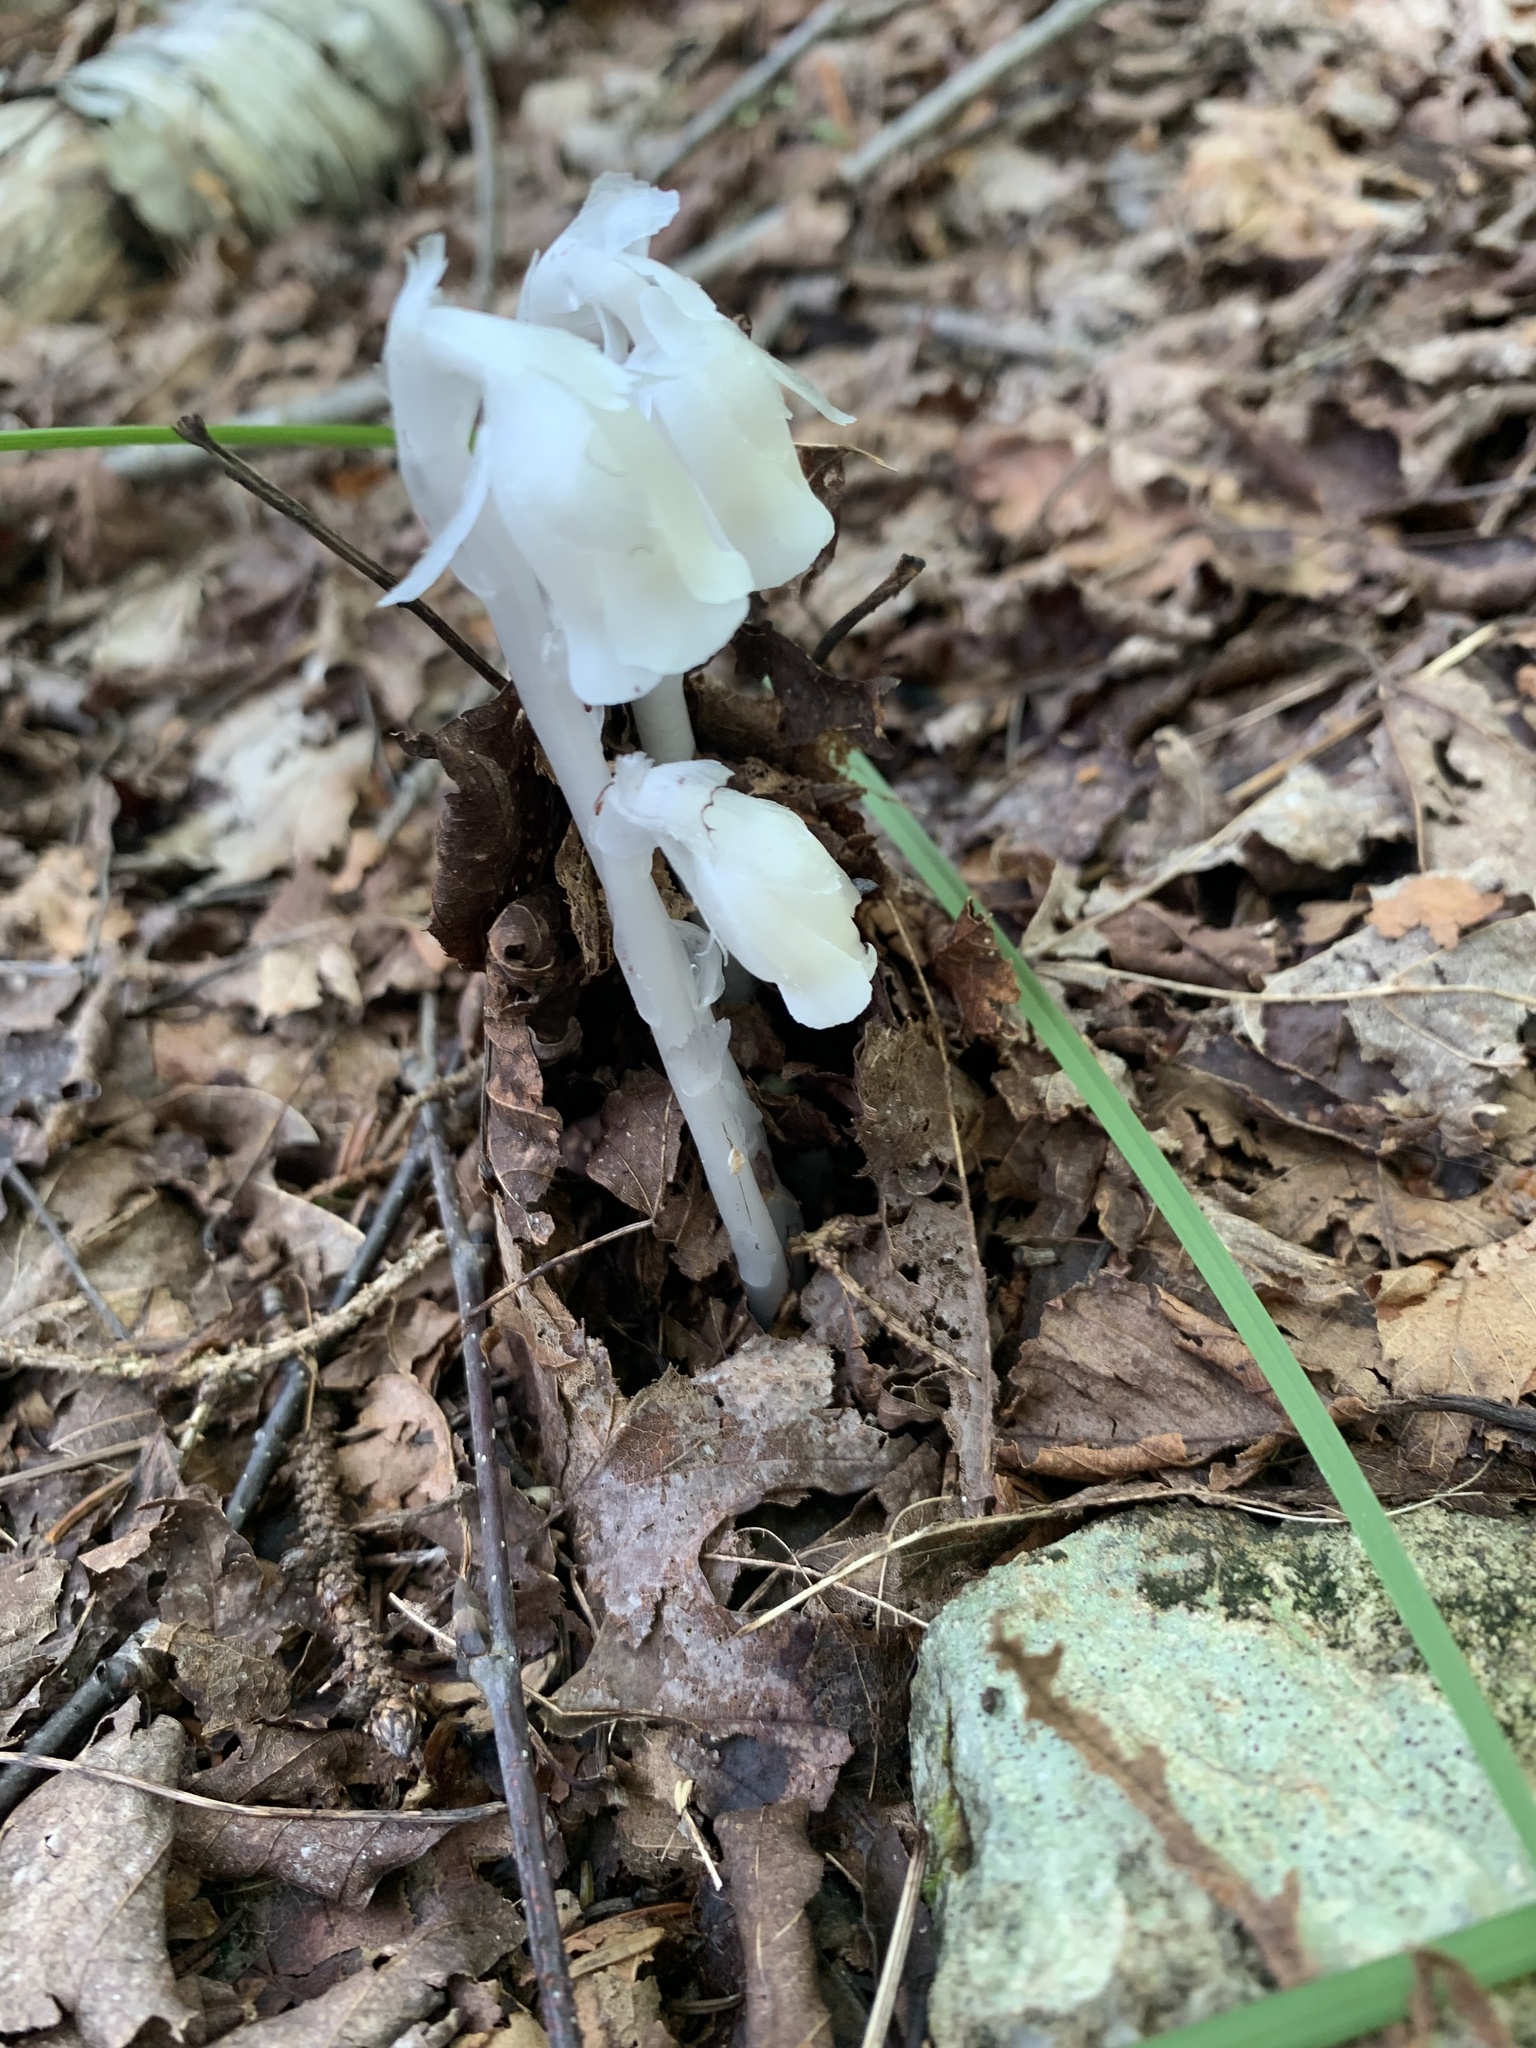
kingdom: Plantae
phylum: Tracheophyta
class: Magnoliopsida
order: Ericales
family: Ericaceae
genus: Monotropa
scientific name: Monotropa uniflora
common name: Convulsion root
